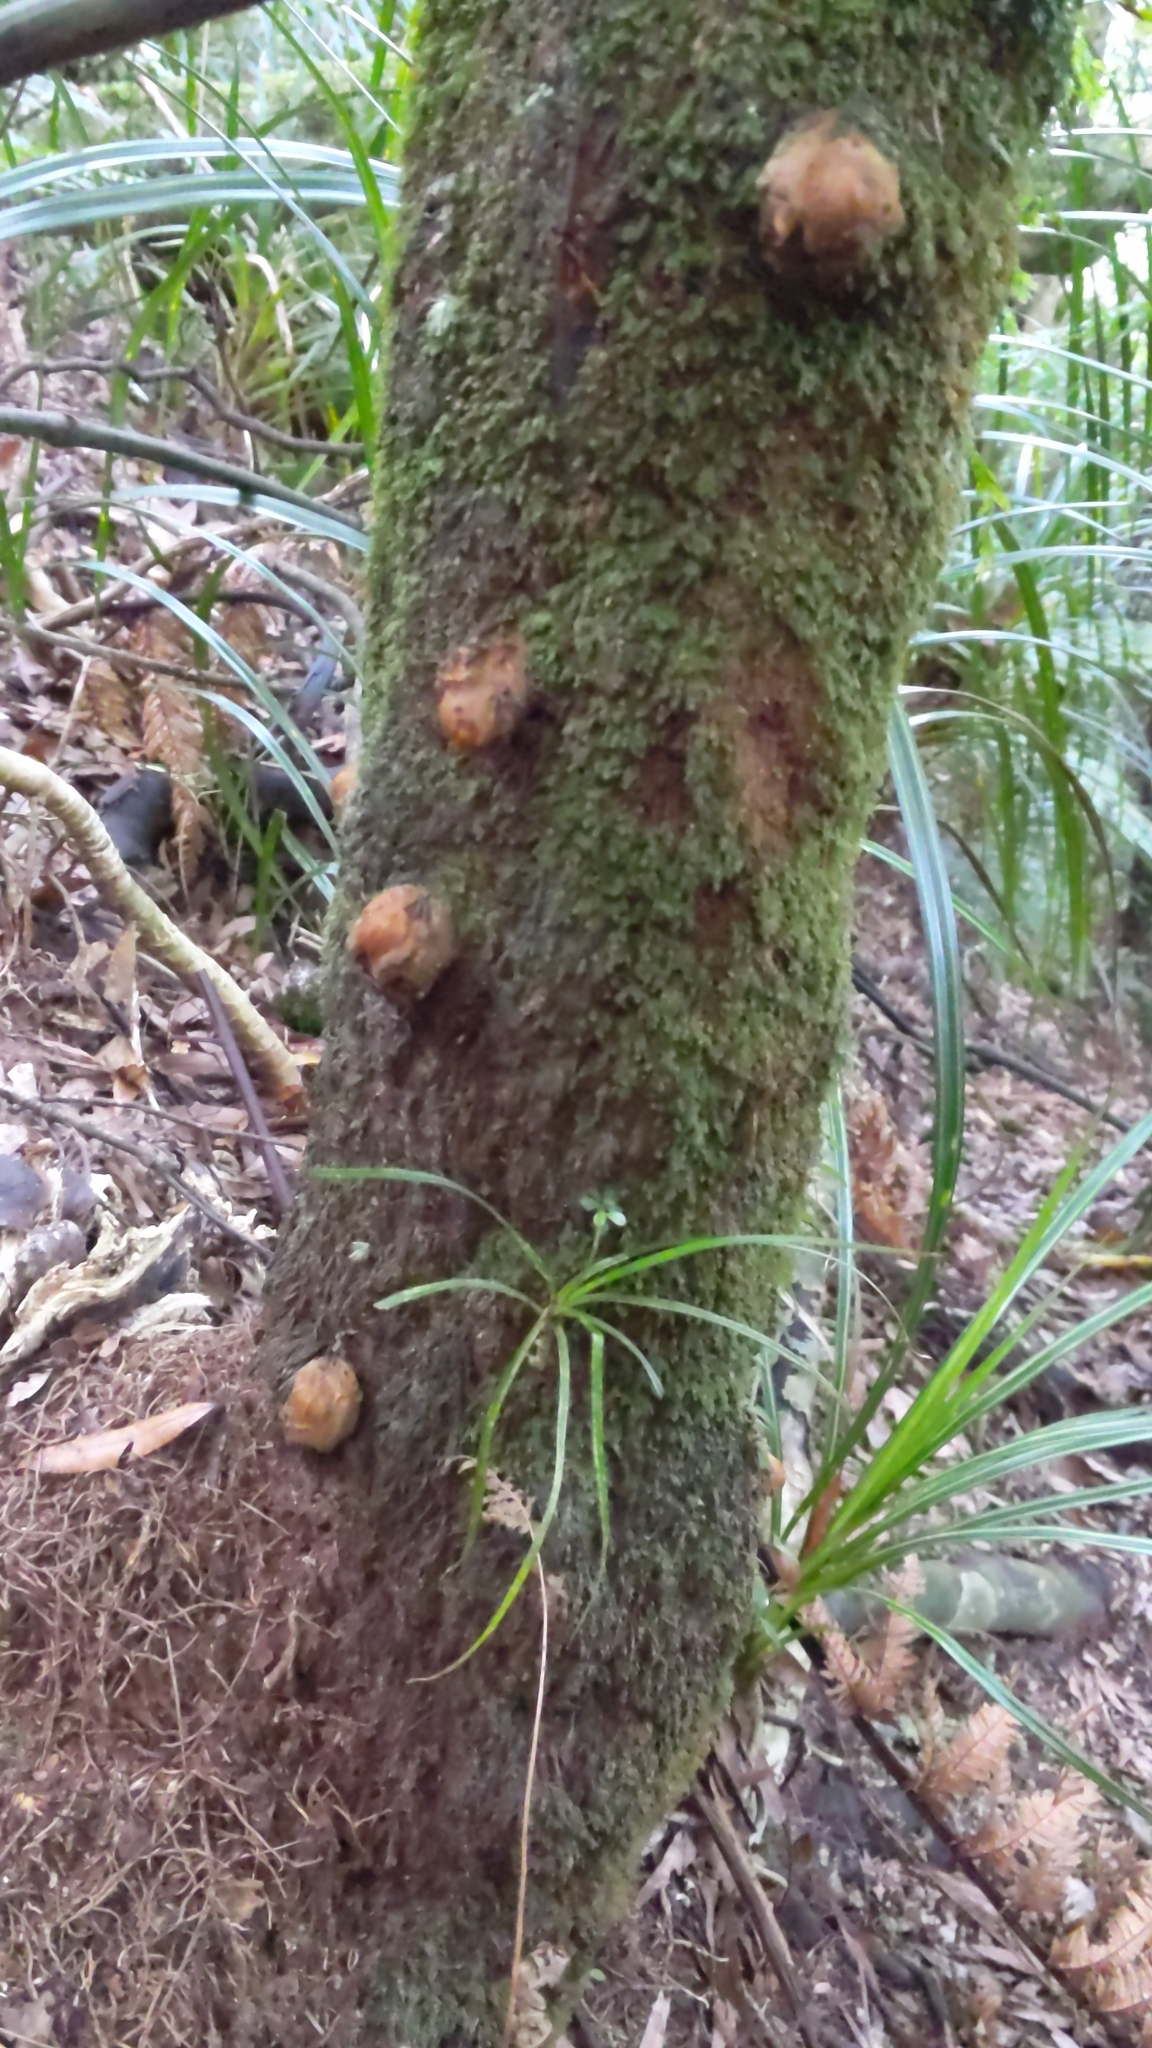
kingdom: Plantae
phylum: Tracheophyta
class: Polypodiopsida
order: Cyatheales
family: Dicksoniaceae
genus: Dicksonia
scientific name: Dicksonia squarrosa
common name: Hard treefern
